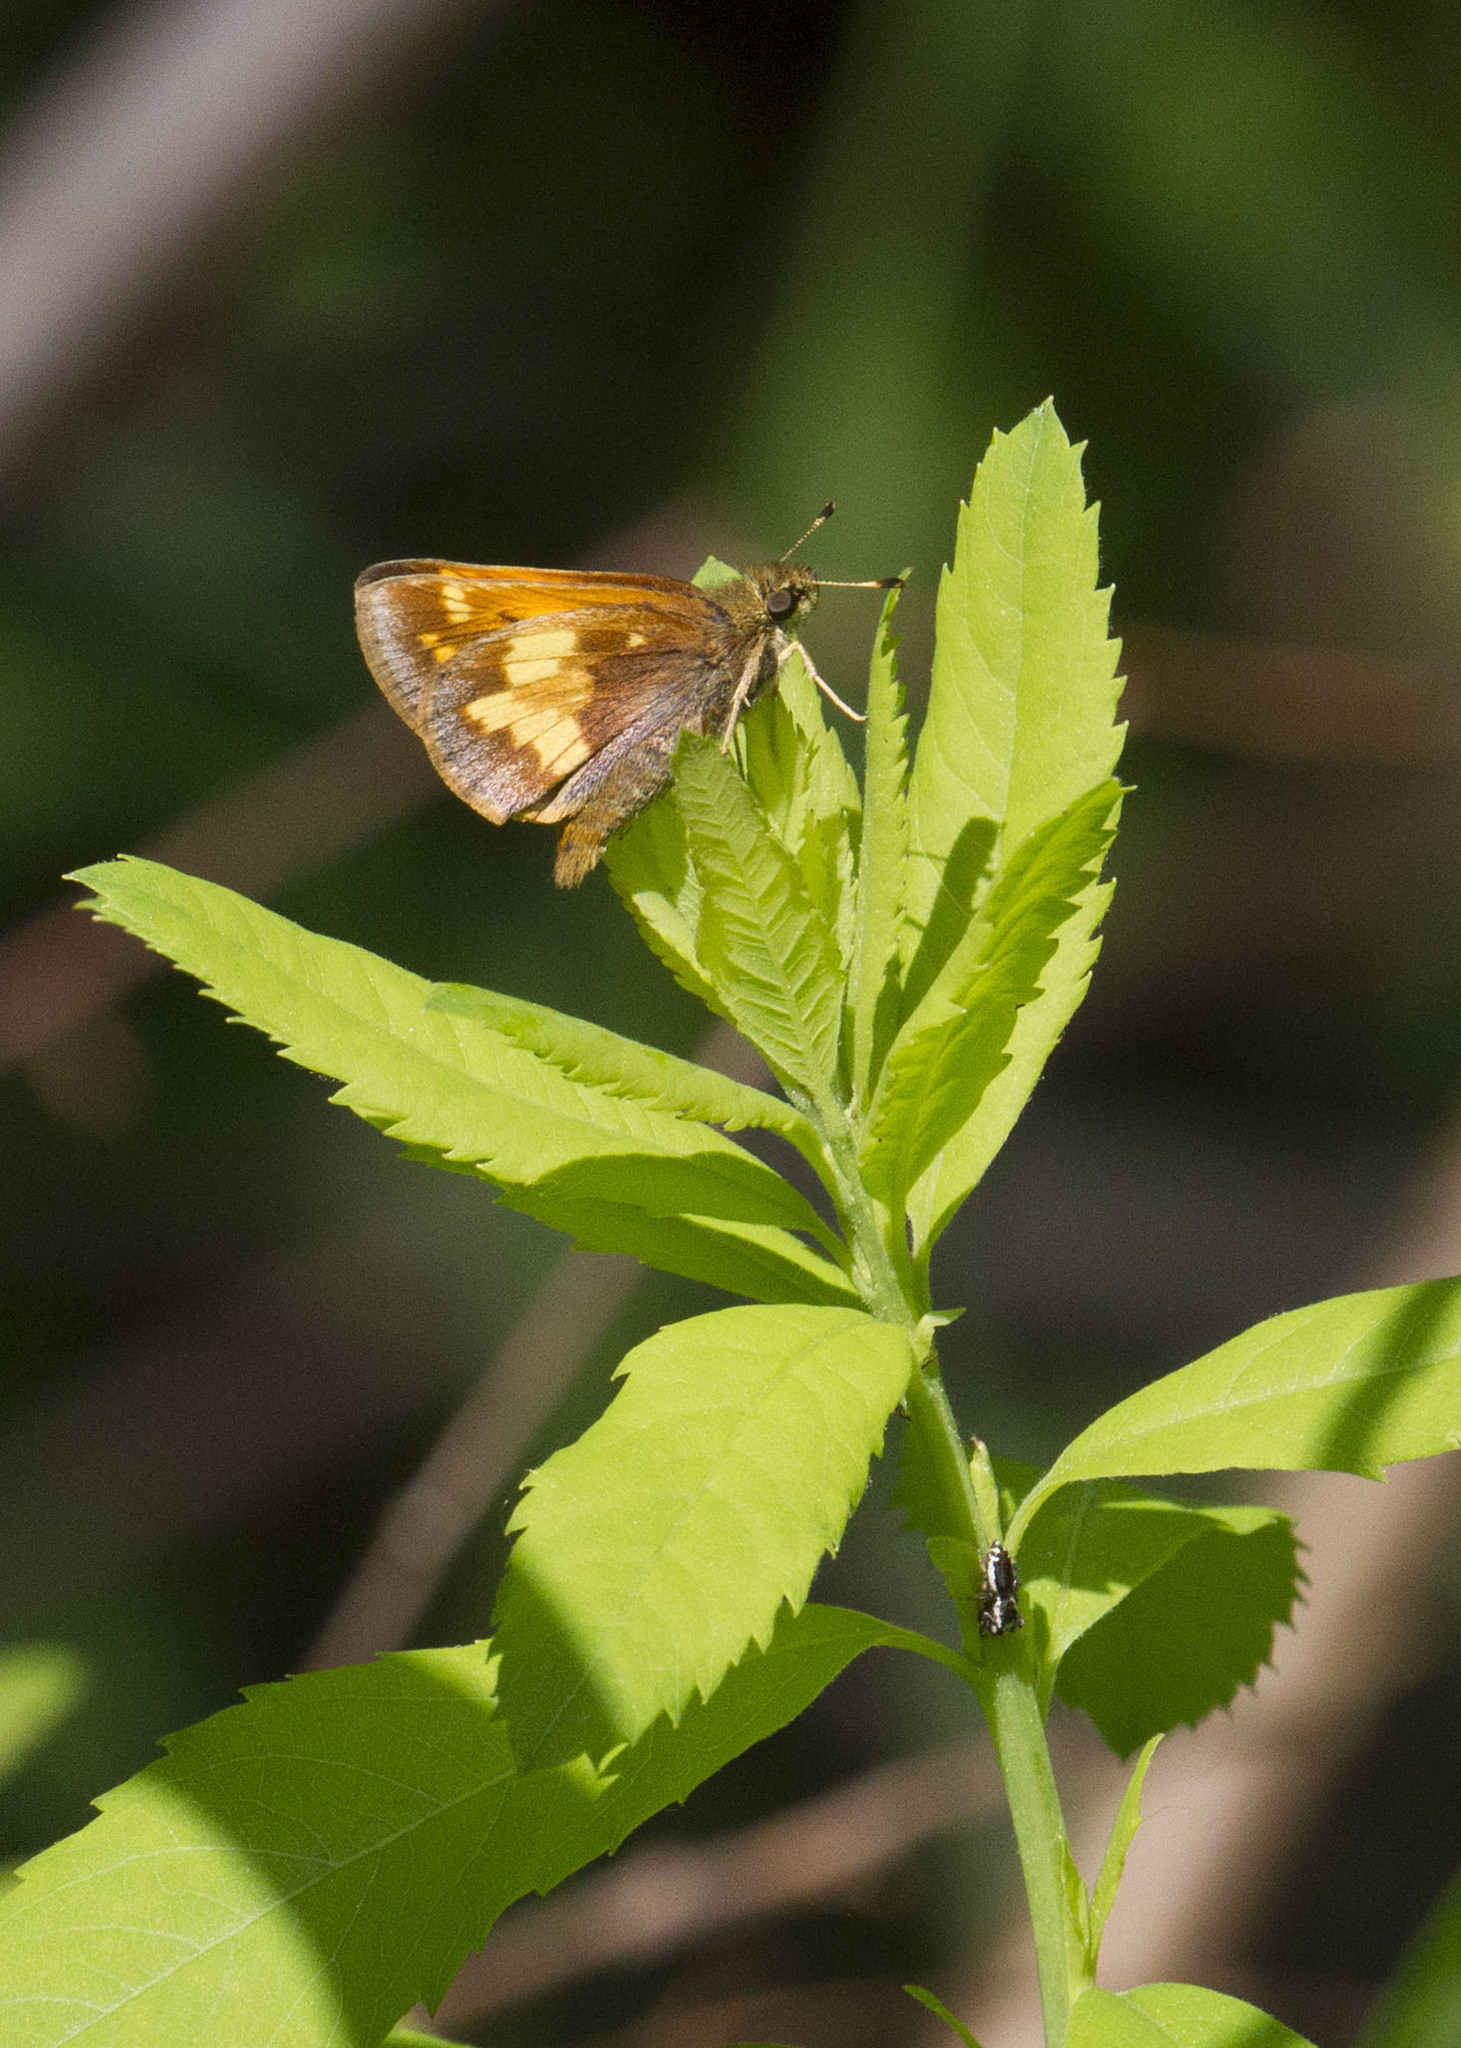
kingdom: Animalia
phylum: Arthropoda
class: Insecta
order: Lepidoptera
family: Hesperiidae
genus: Lon
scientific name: Lon hobomok
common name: Hobomok skipper
